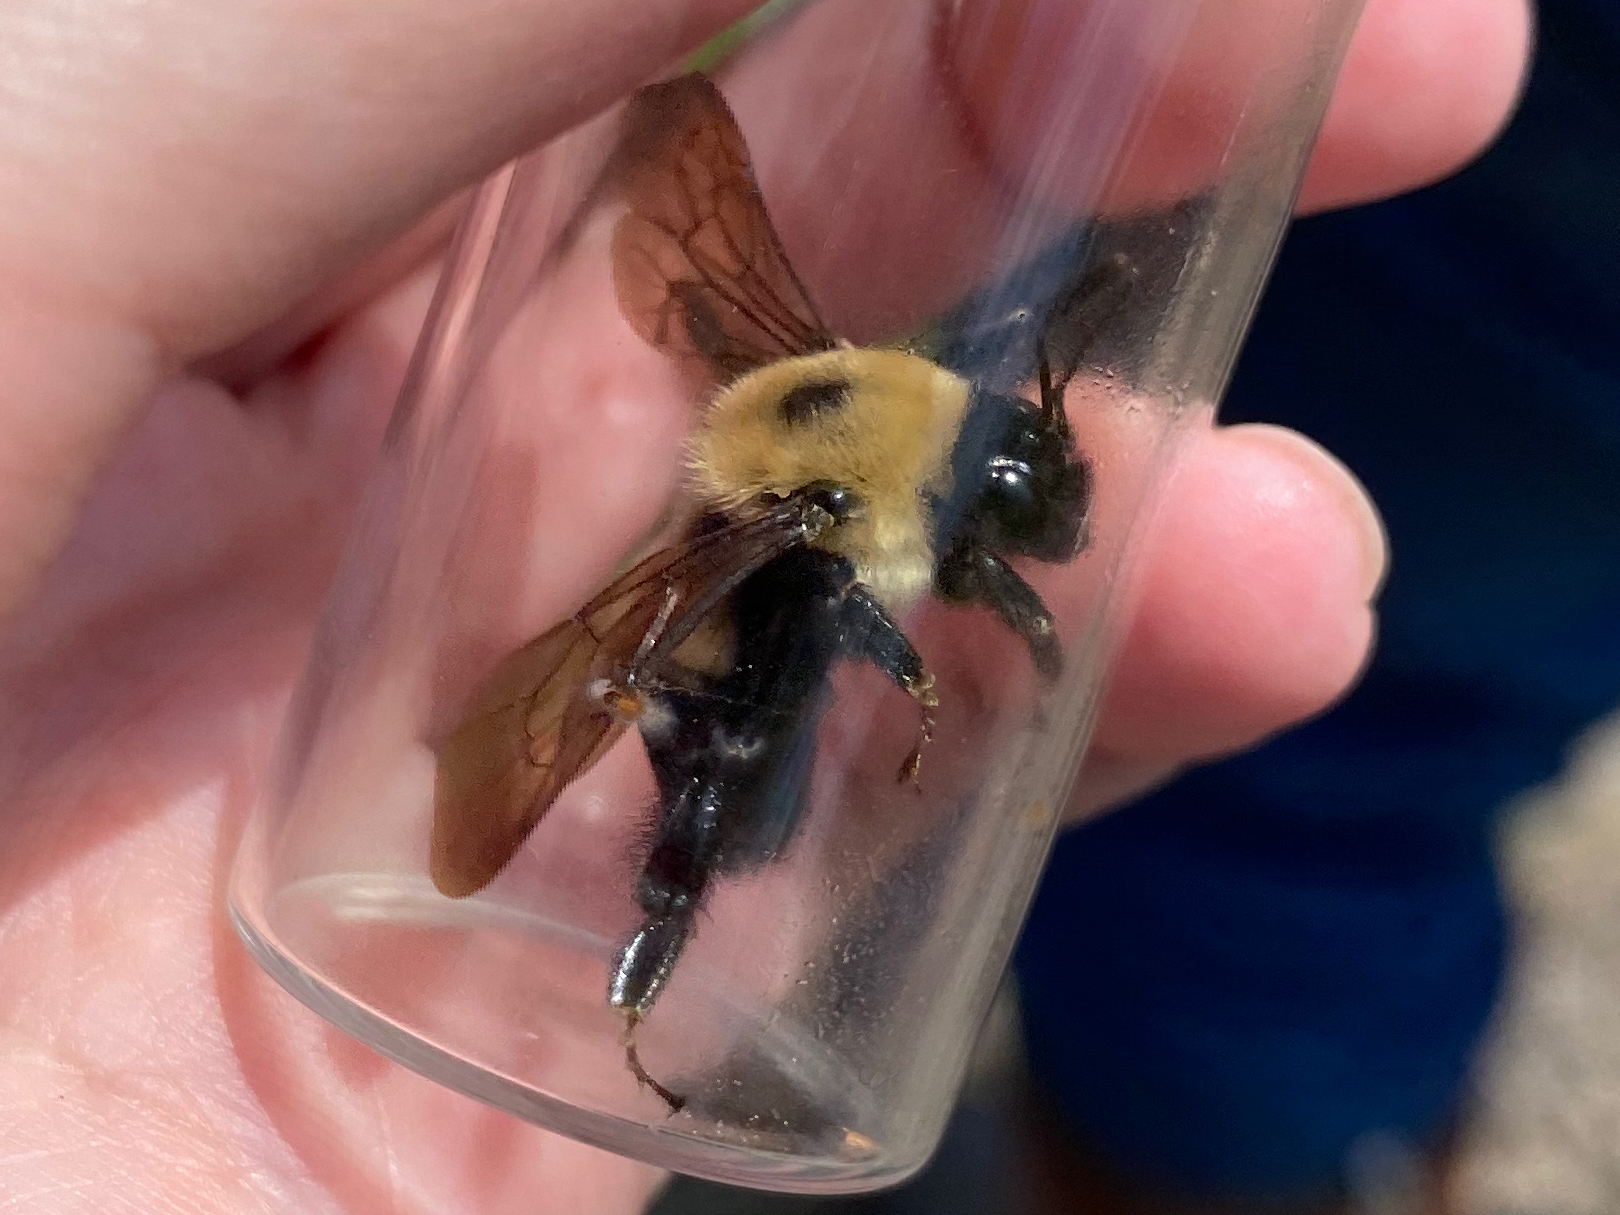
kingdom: Animalia
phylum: Arthropoda
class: Insecta
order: Hymenoptera
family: Apidae
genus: Bombus
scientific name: Bombus griseocollis
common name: Brown-belted bumble bee
